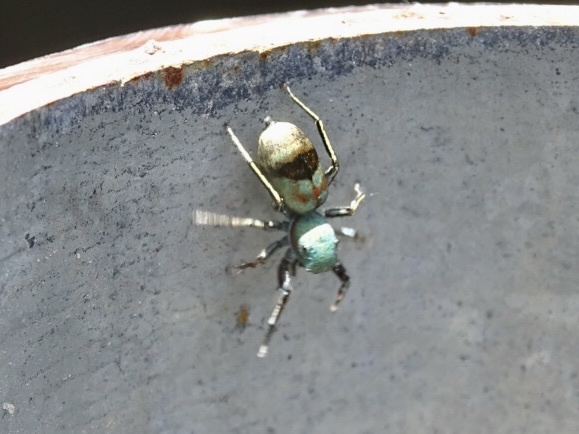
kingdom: Animalia
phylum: Arthropoda
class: Arachnida
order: Araneae
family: Salticidae
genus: Siler
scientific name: Siler collingwoodi
